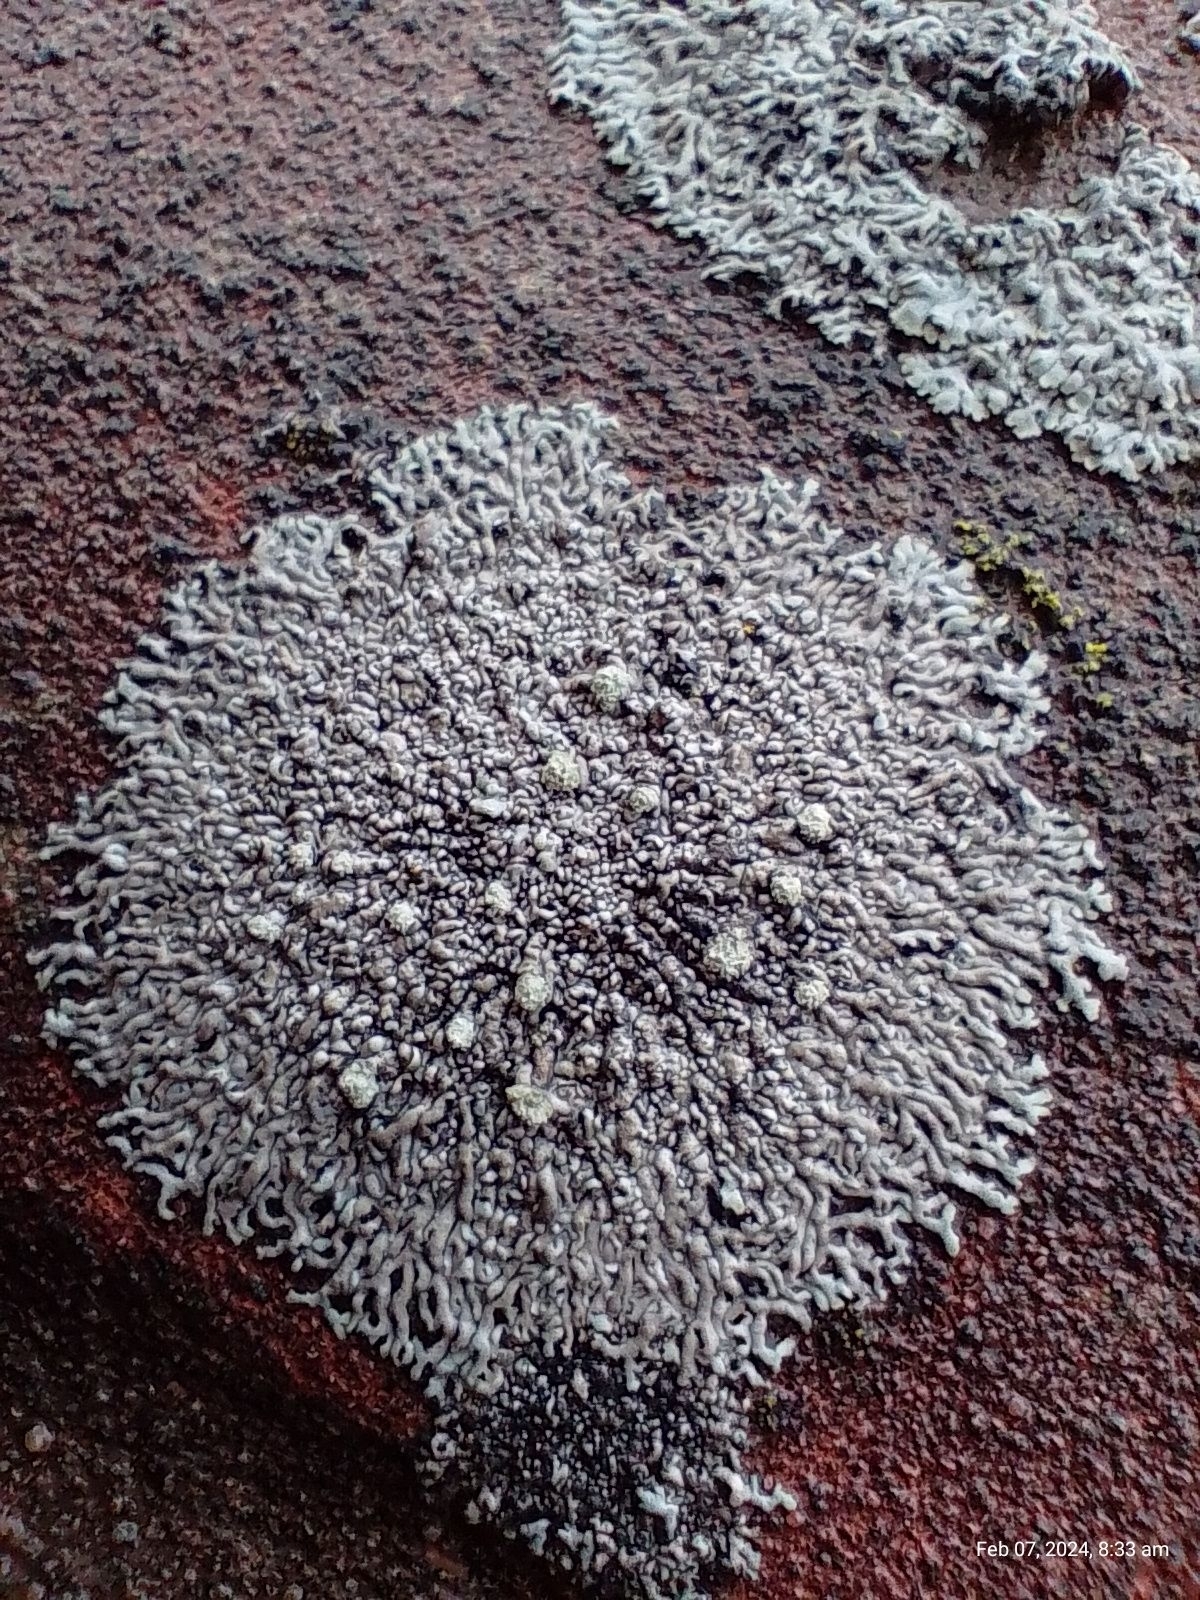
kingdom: Fungi
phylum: Ascomycota
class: Lecanoromycetes
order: Caliciales
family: Physciaceae
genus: Physcia
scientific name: Physcia caesia
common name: Blue-gray rosette lichen
